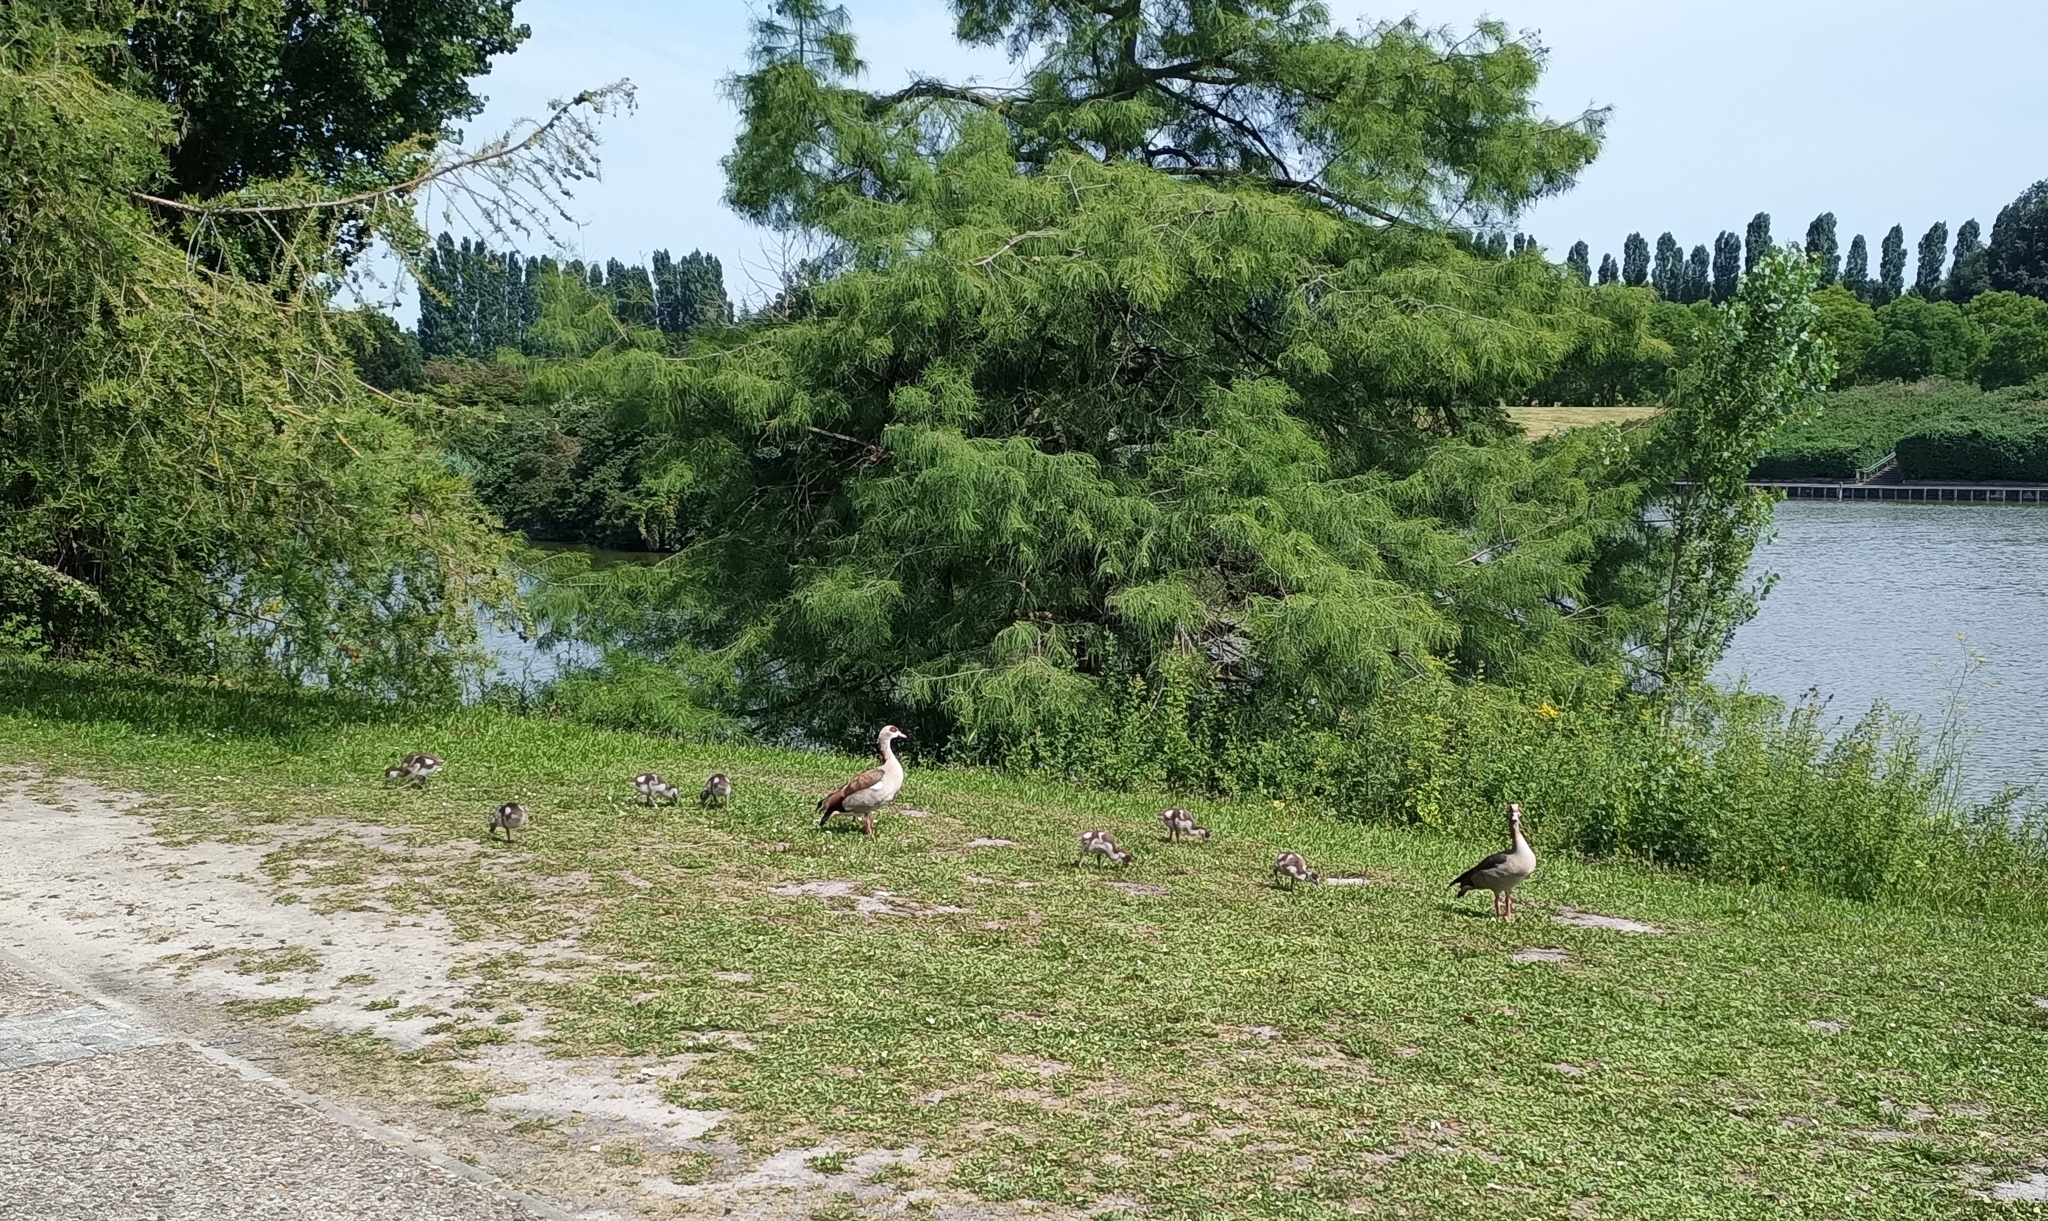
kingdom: Animalia
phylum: Chordata
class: Aves
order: Anseriformes
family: Anatidae
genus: Alopochen
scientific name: Alopochen aegyptiaca
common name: Egyptian goose
